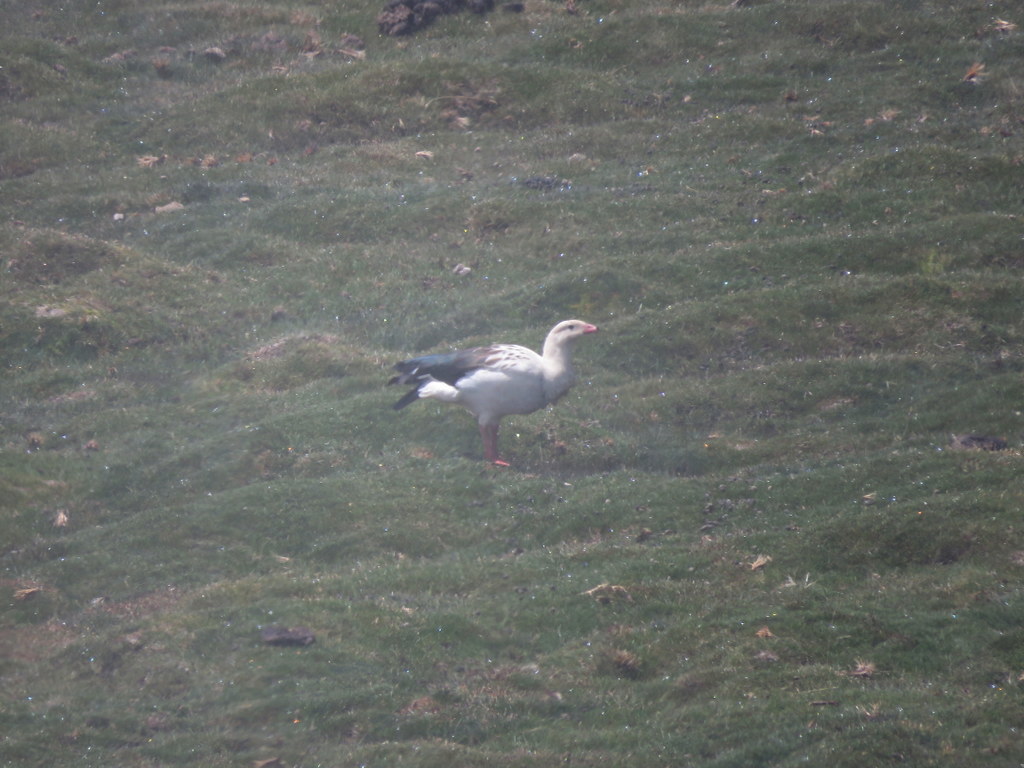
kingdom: Animalia
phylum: Chordata
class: Aves
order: Anseriformes
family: Anatidae
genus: Chloephaga
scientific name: Chloephaga melanoptera
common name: Andean goose
